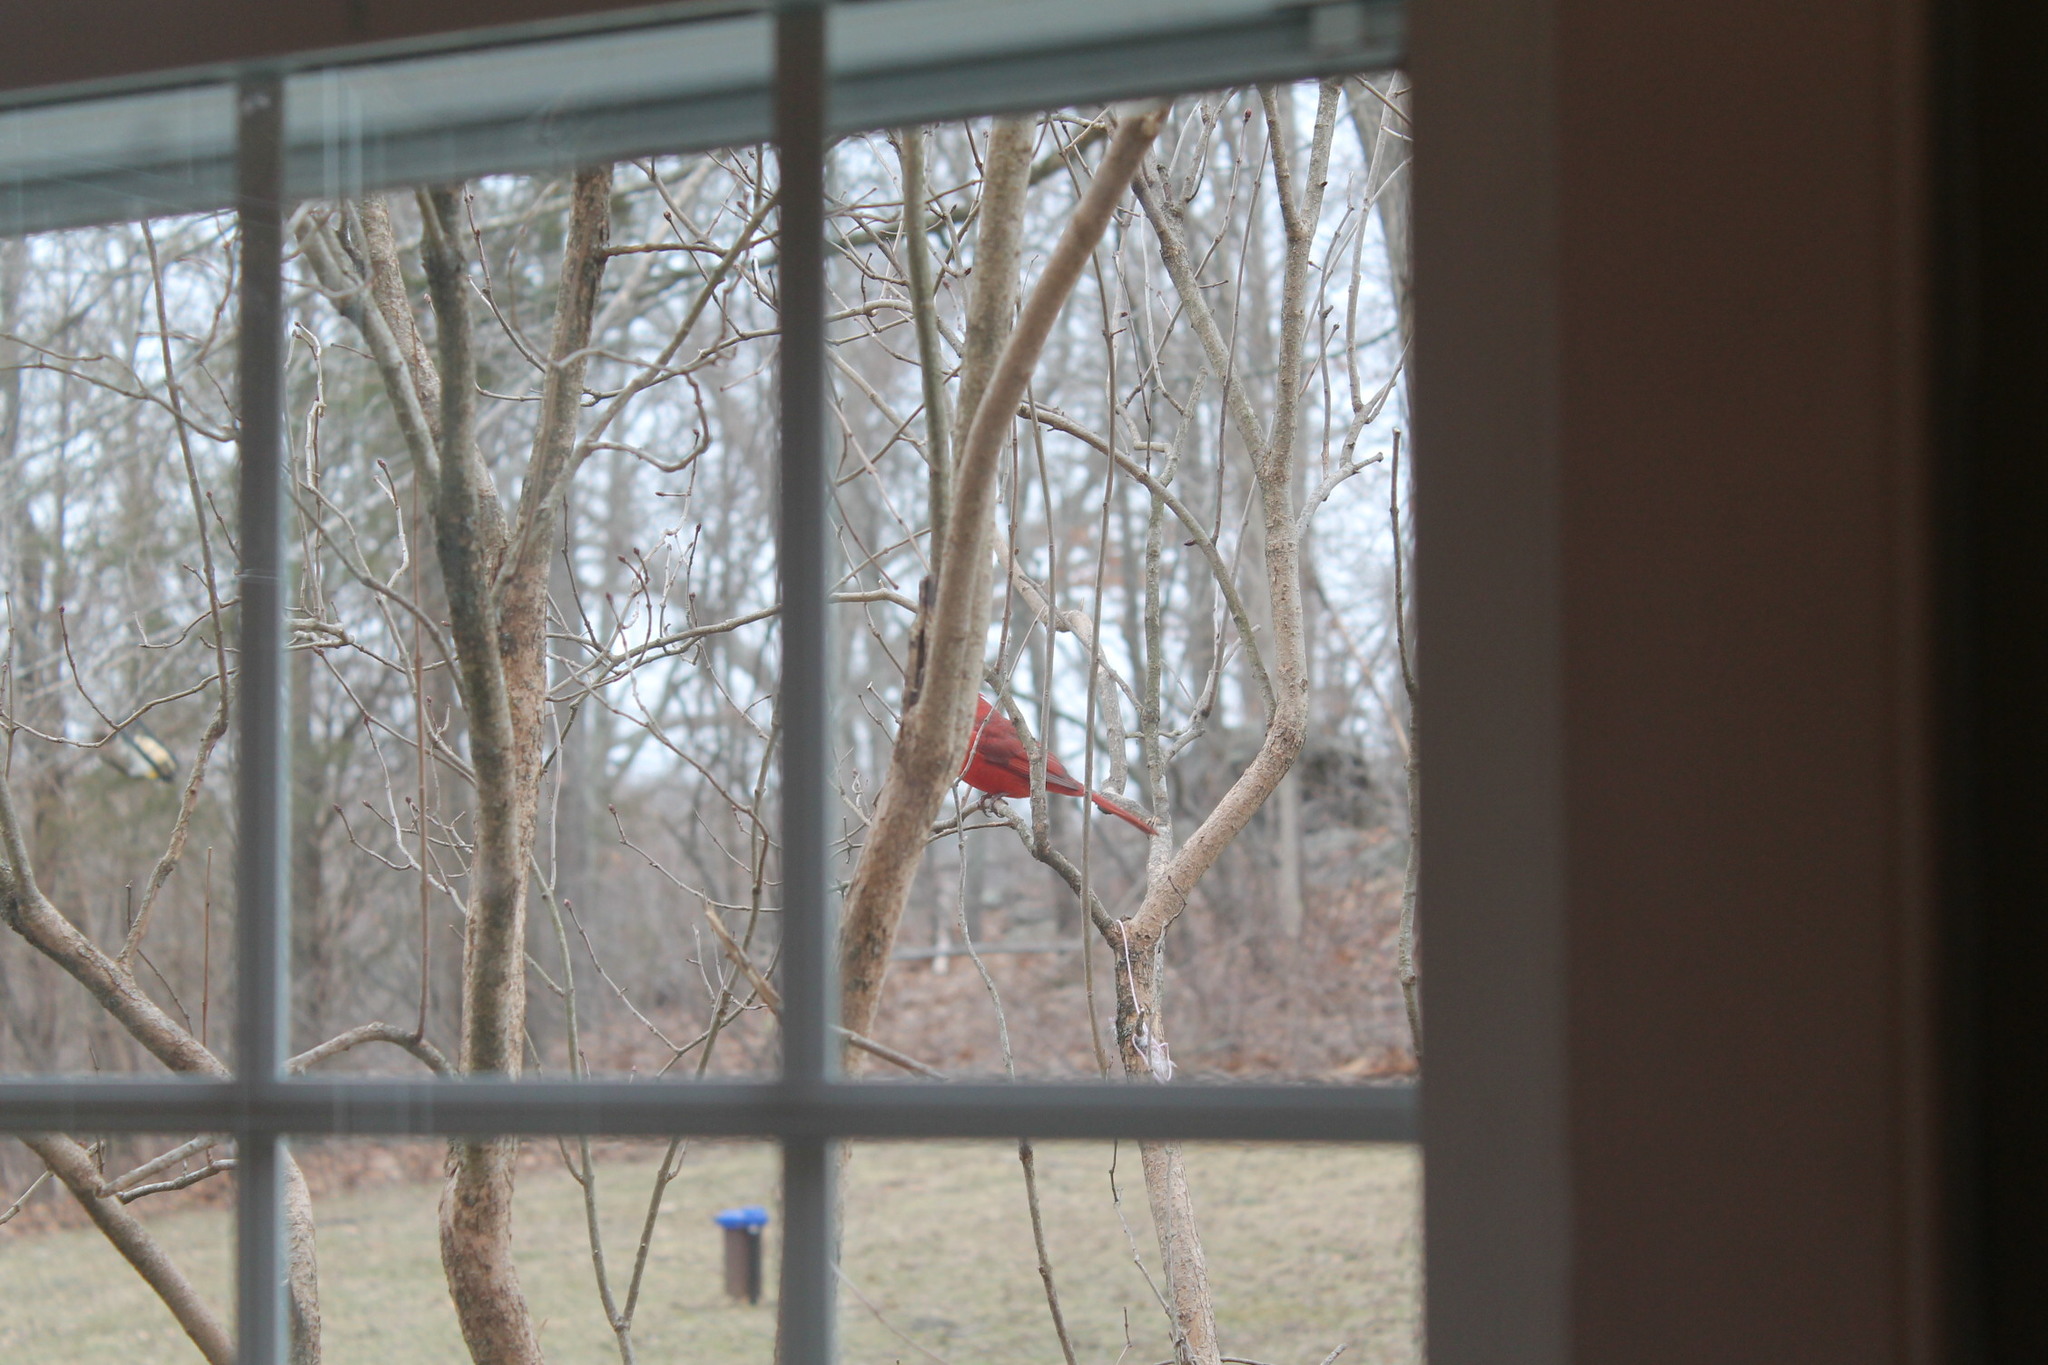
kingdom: Animalia
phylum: Chordata
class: Aves
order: Passeriformes
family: Cardinalidae
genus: Cardinalis
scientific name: Cardinalis cardinalis
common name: Northern cardinal
